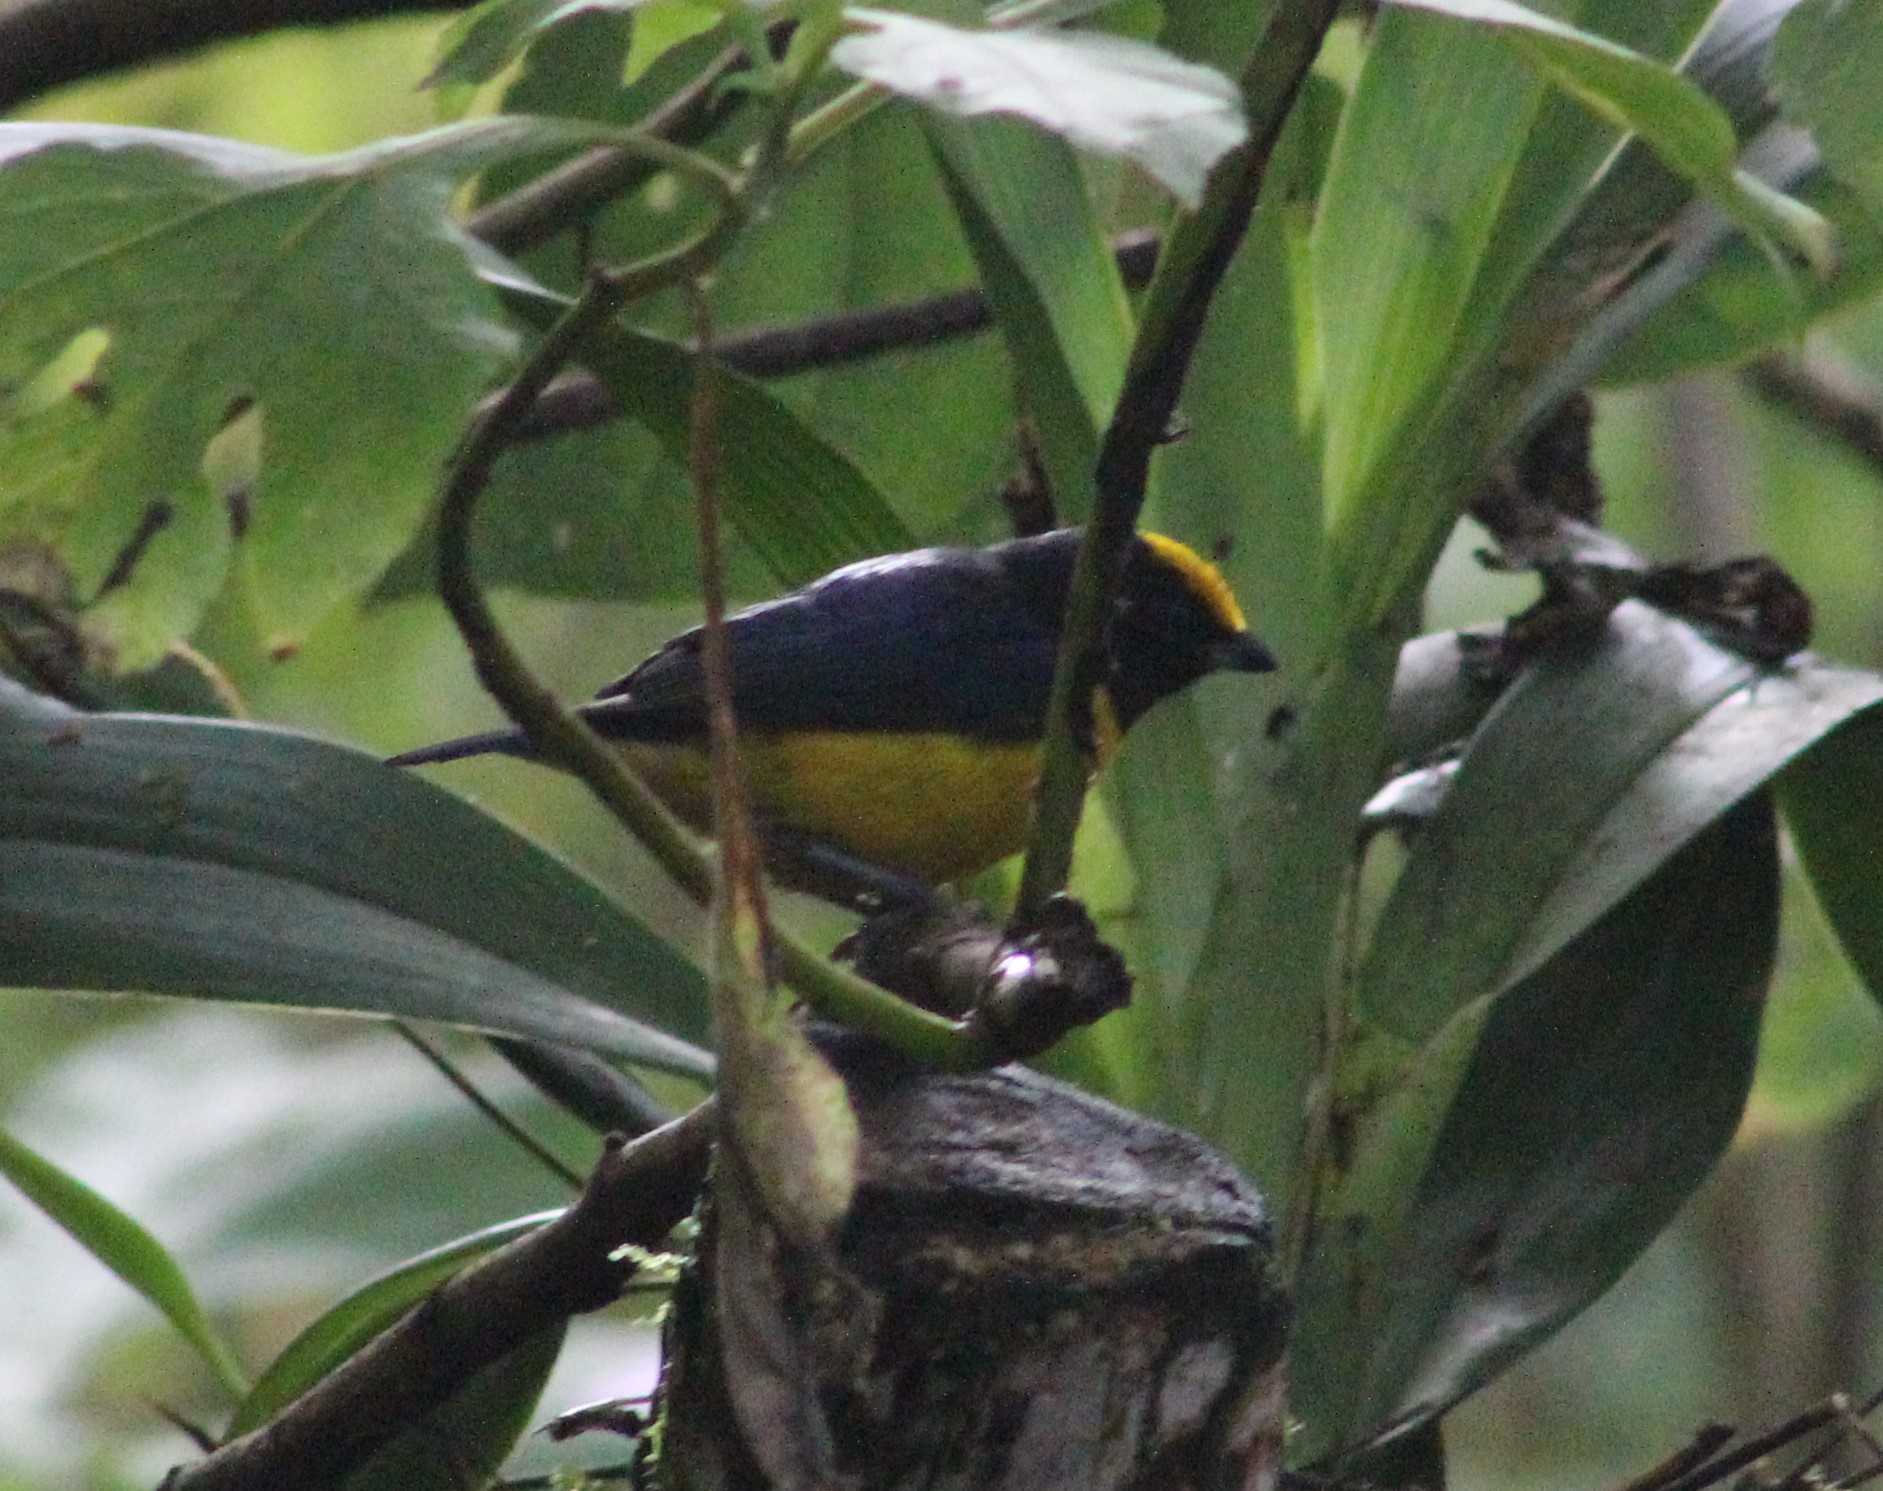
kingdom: Animalia
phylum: Chordata
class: Aves
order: Passeriformes
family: Fringillidae
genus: Euphonia
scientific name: Euphonia xanthogaster
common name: Orange-bellied euphonia
